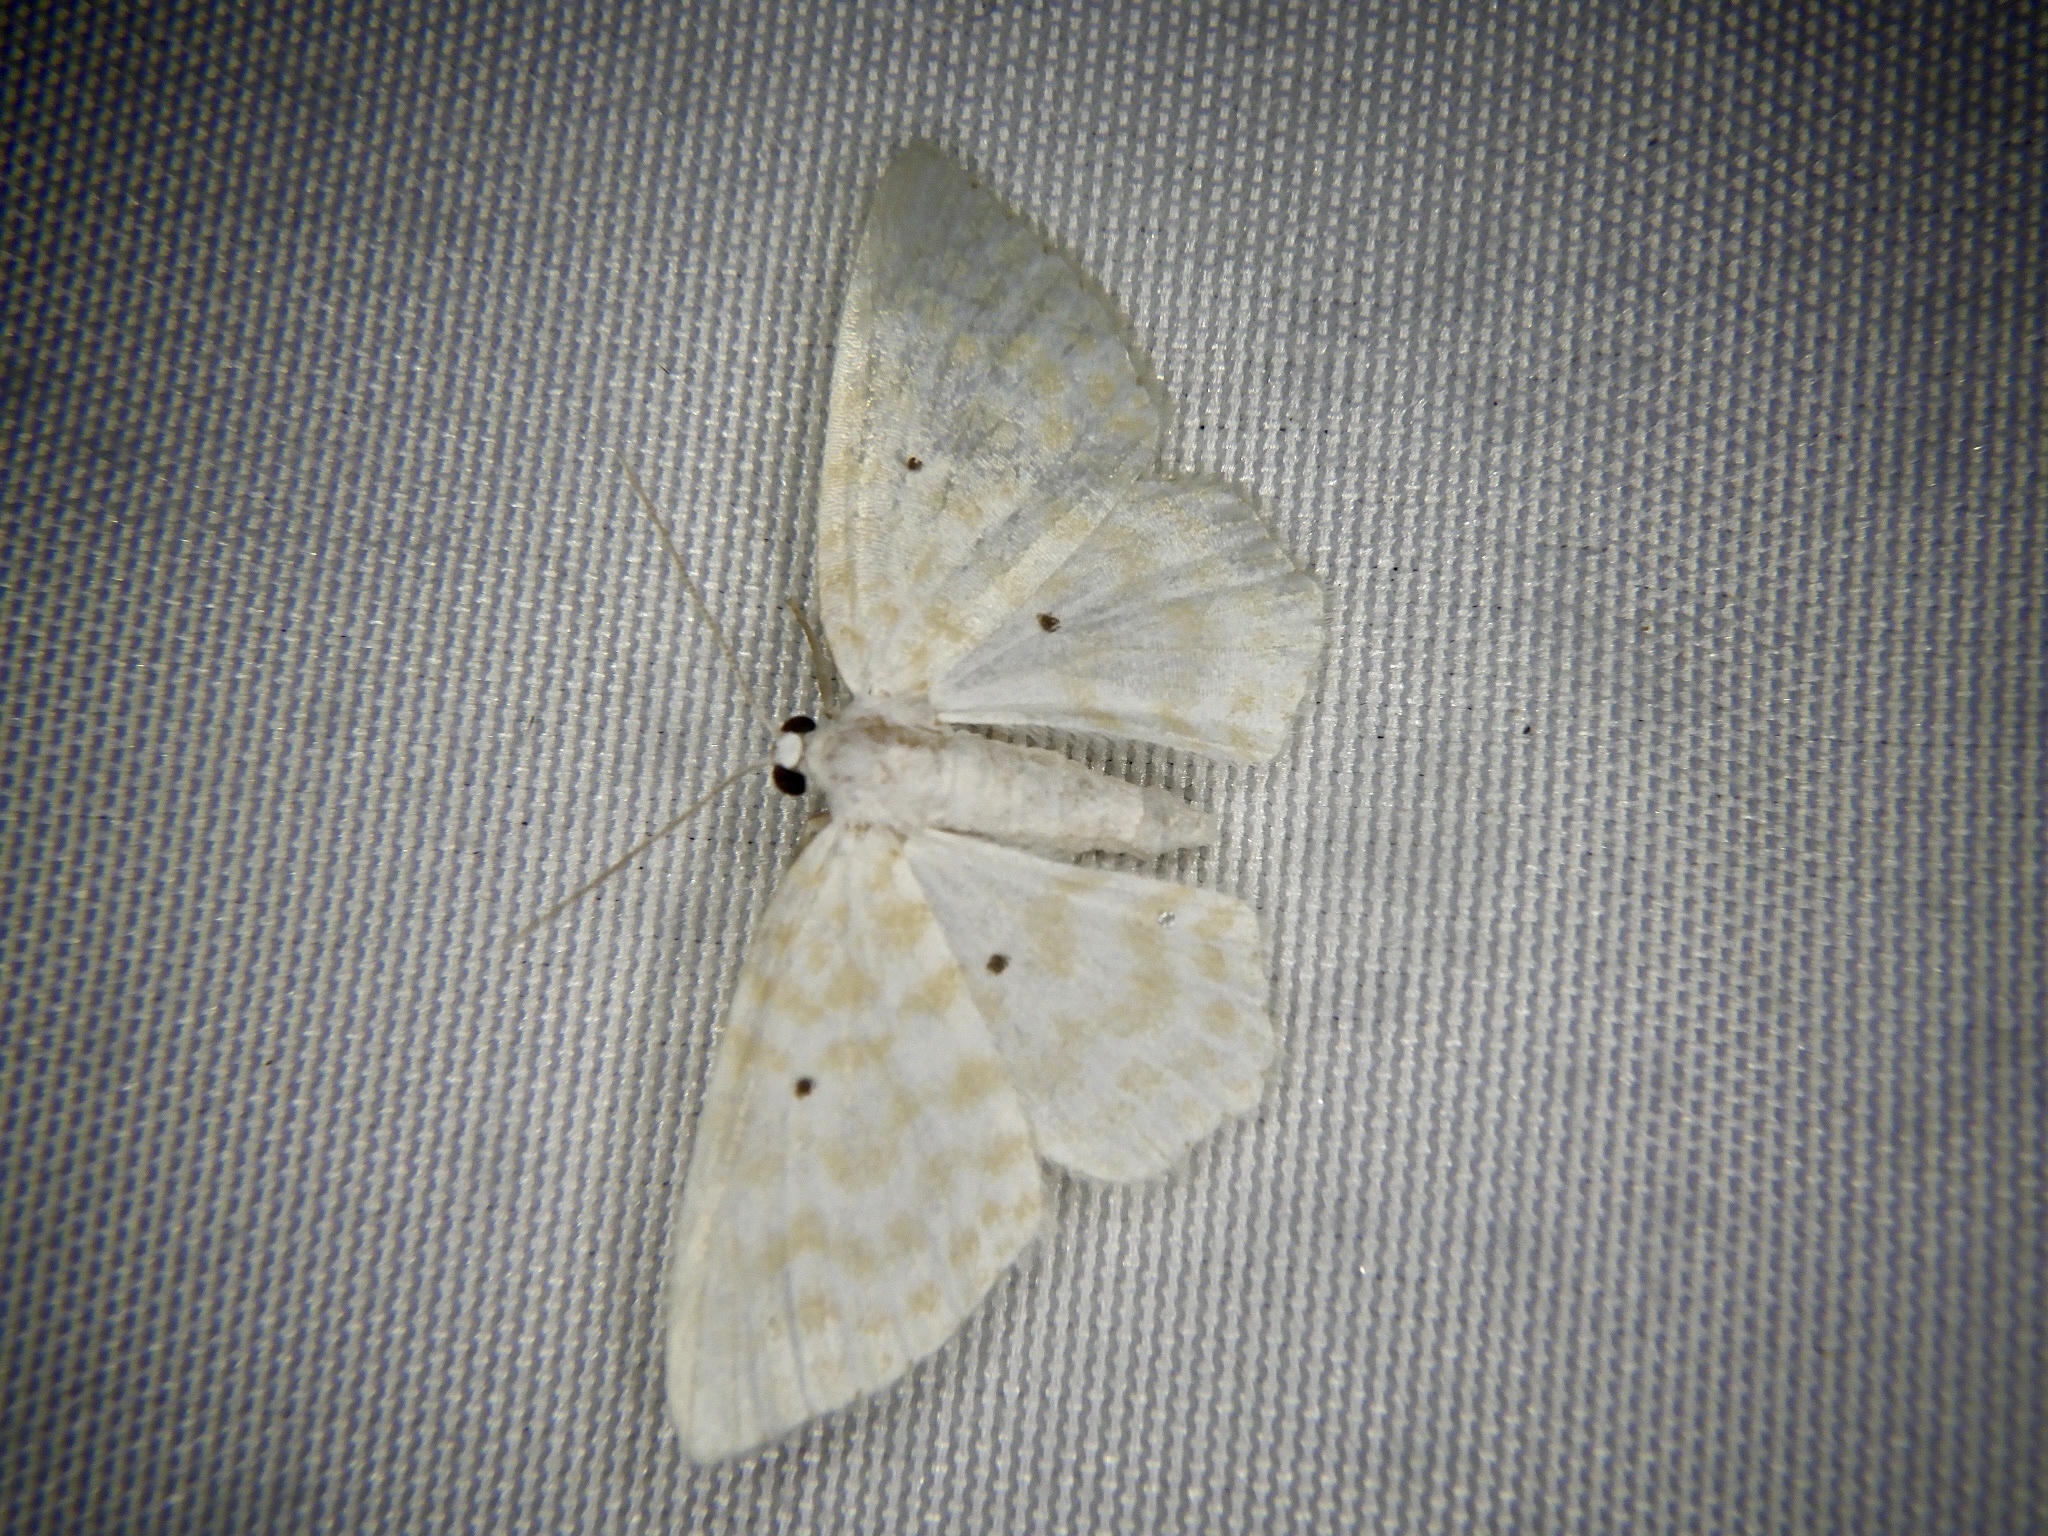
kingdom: Animalia
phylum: Arthropoda
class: Insecta
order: Lepidoptera
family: Geometridae
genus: Asthena
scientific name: Asthena corculina
